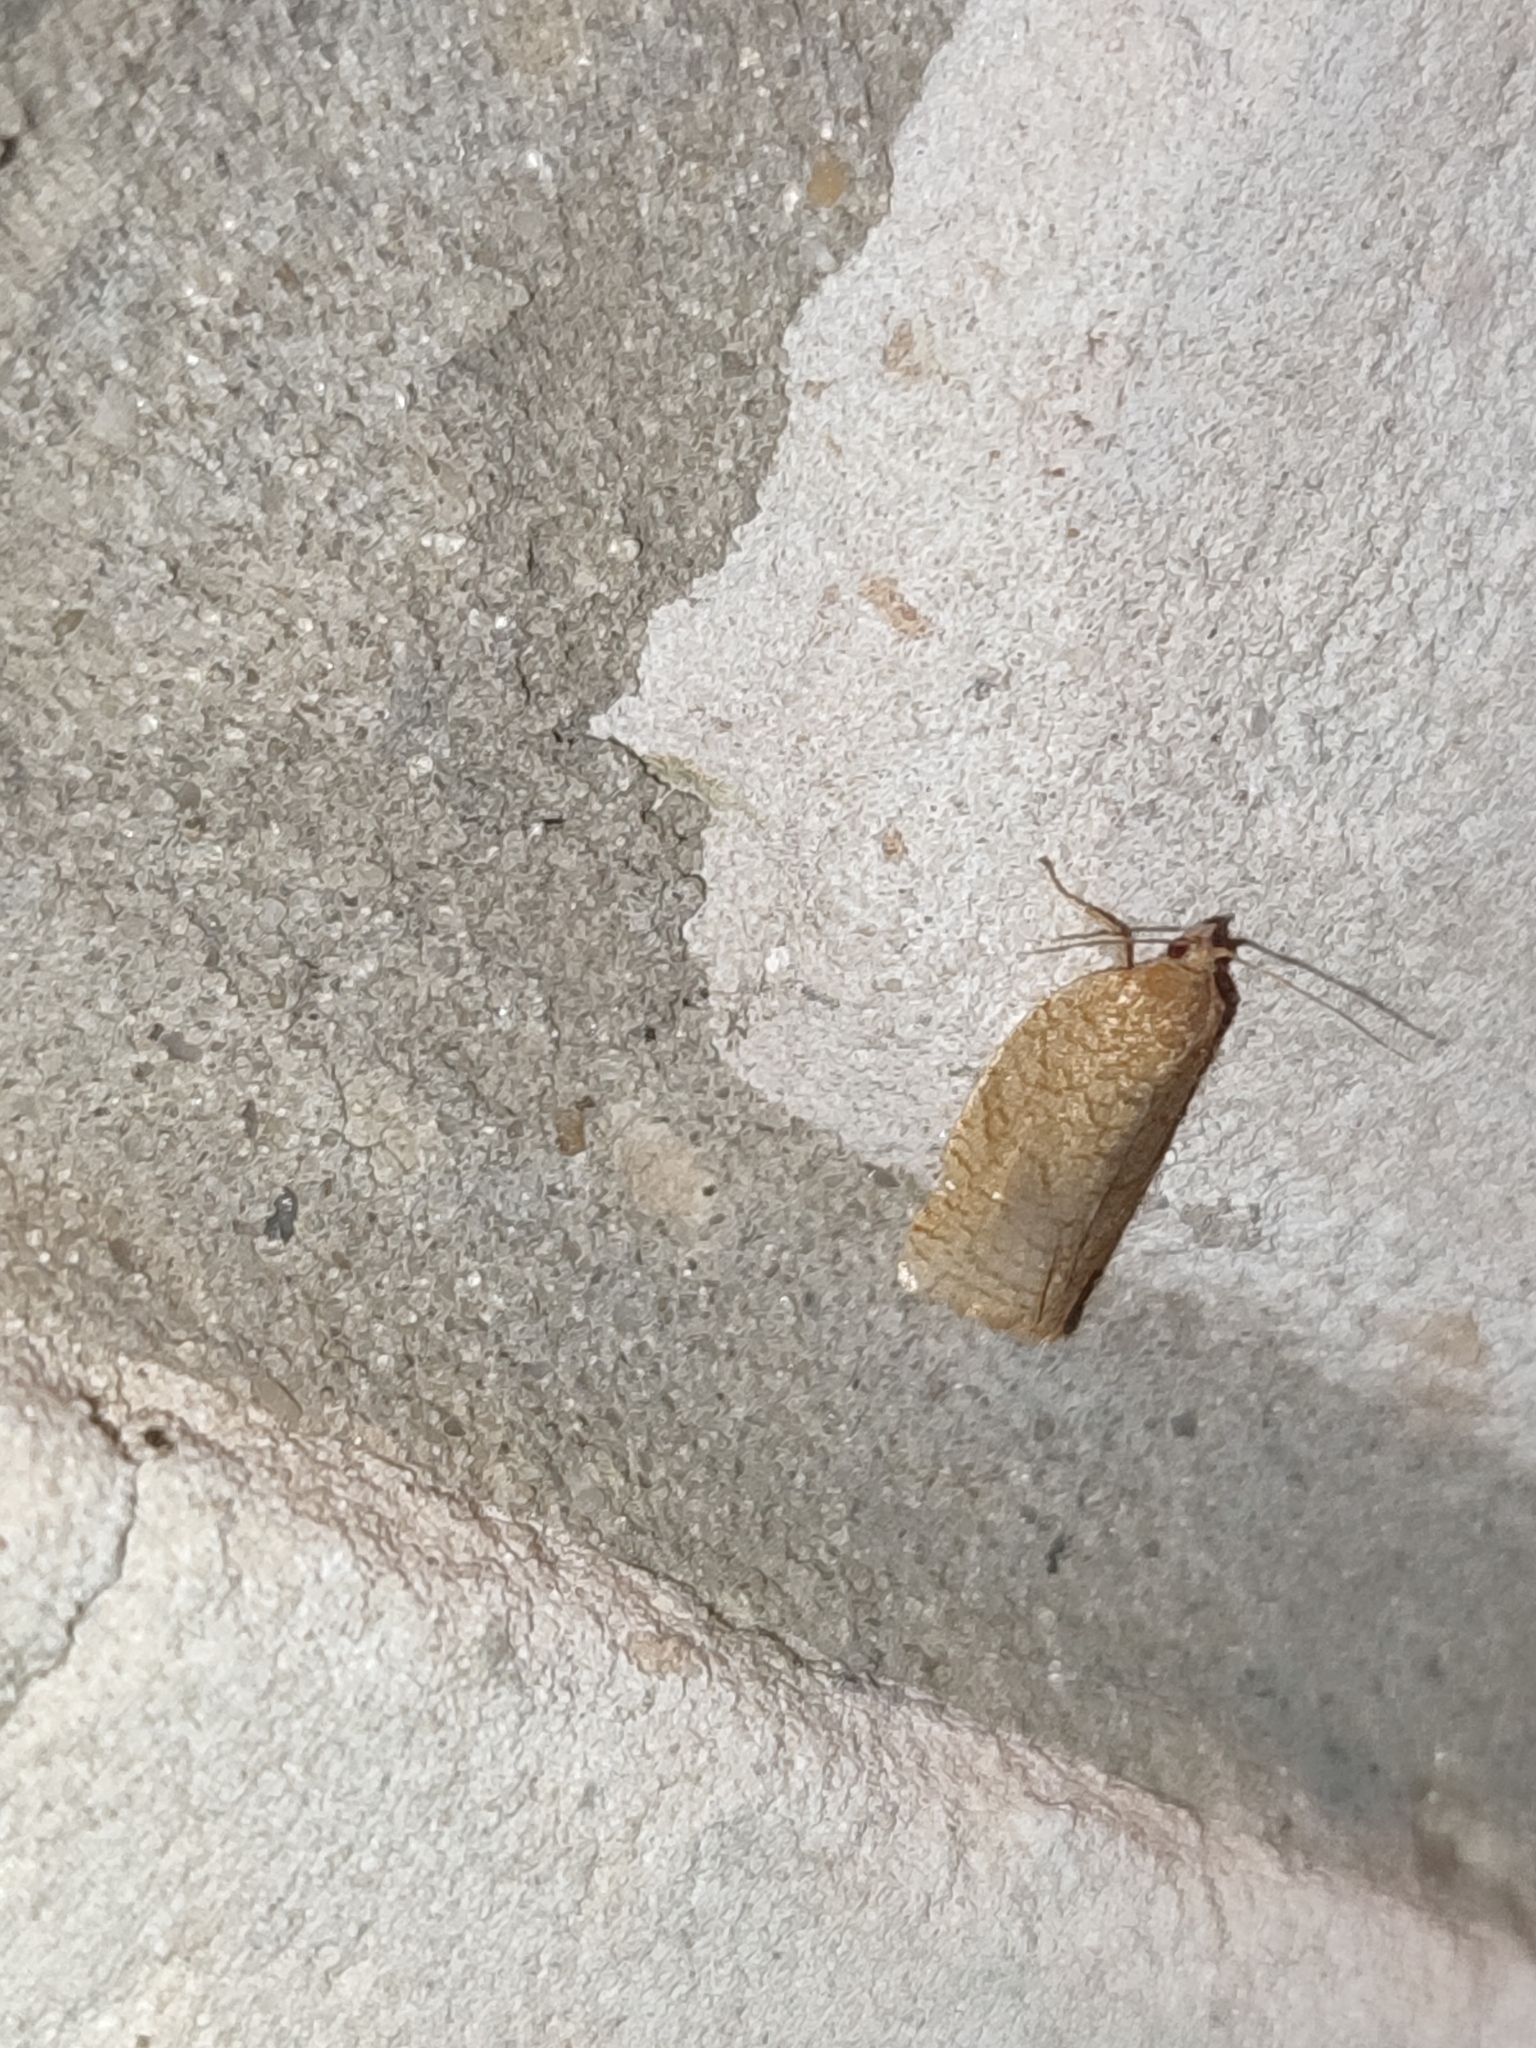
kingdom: Animalia
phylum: Arthropoda
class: Insecta
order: Lepidoptera
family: Tortricidae
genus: Archips
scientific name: Archips rosana
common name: Rose tortrix
